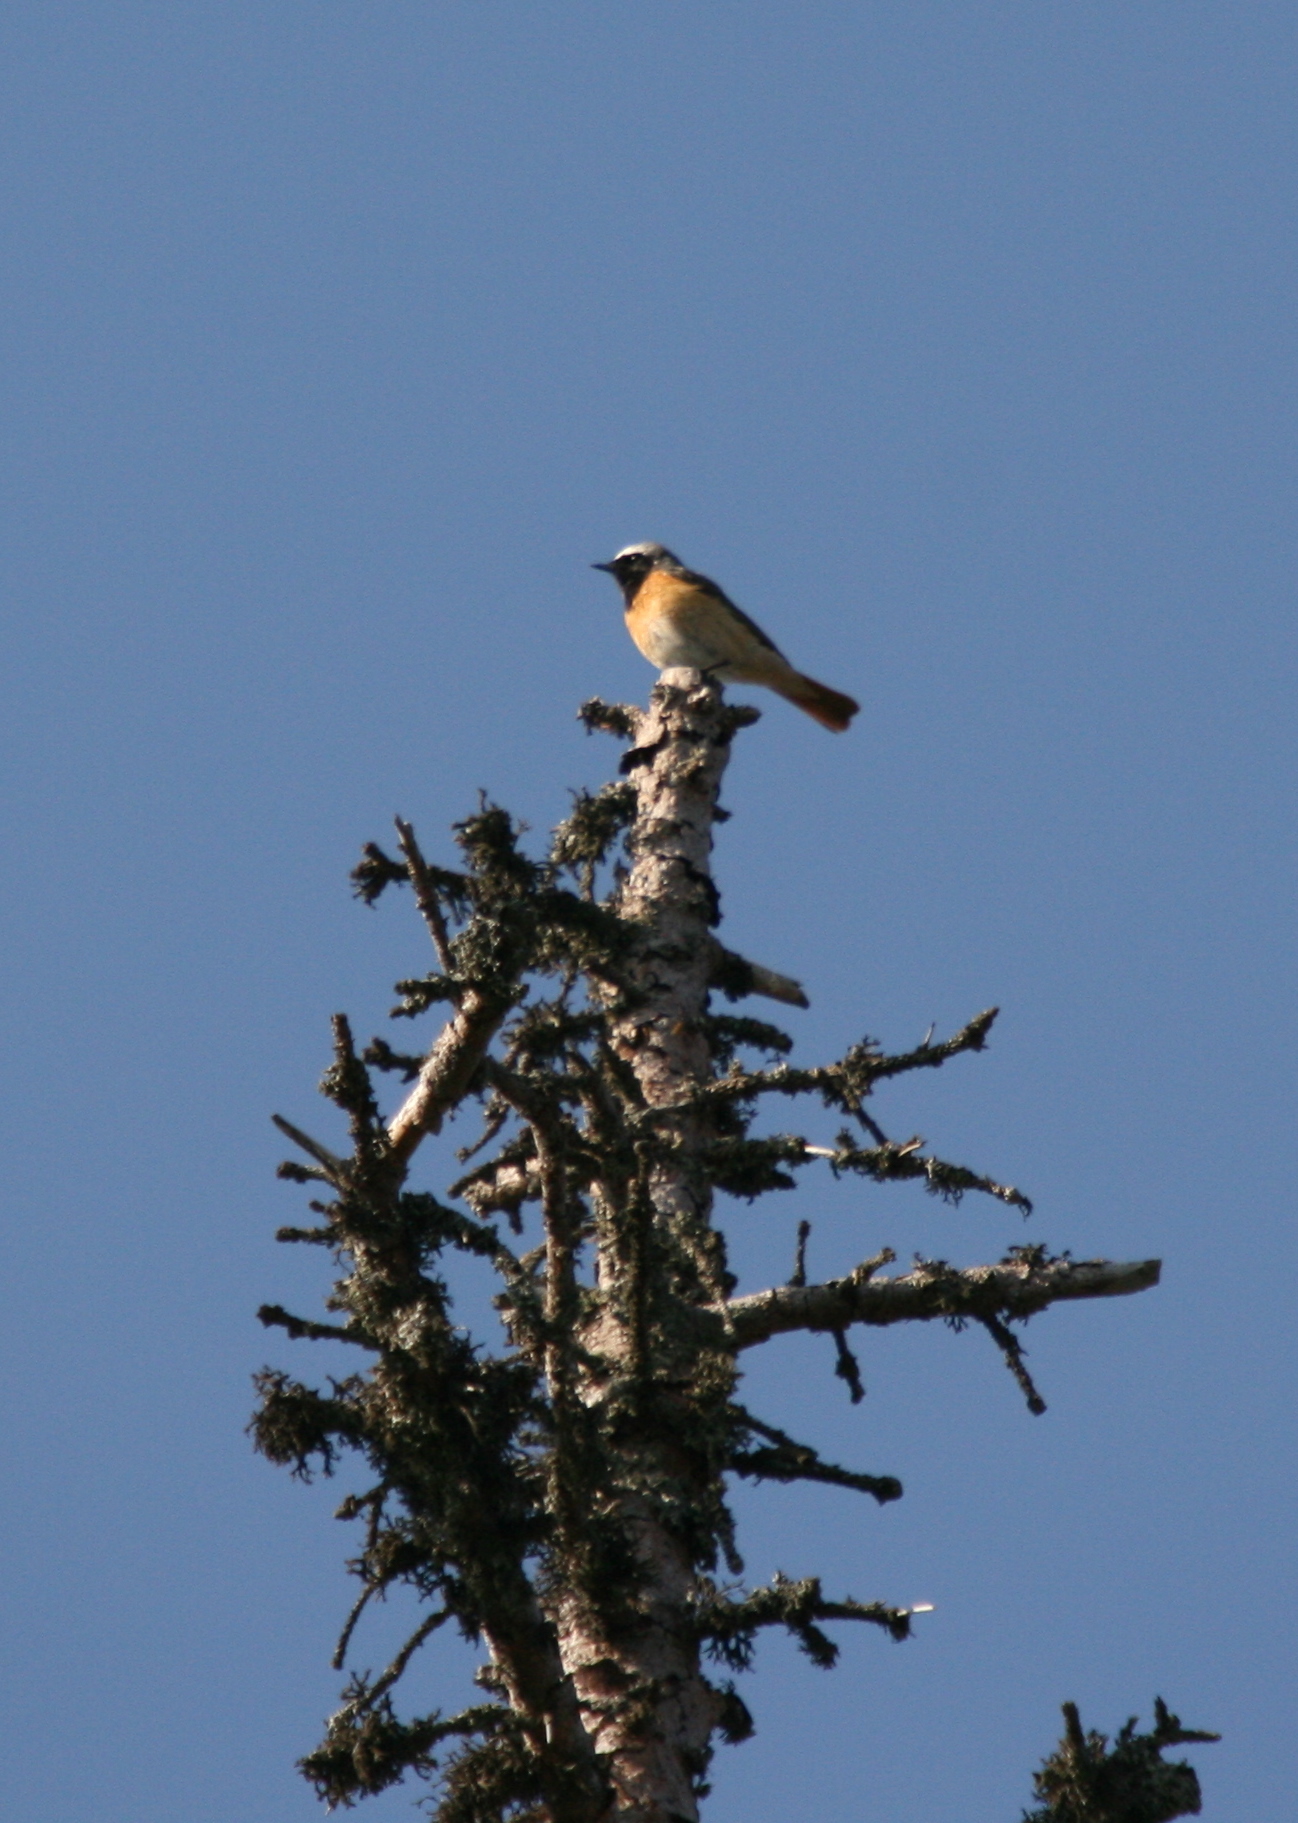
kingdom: Animalia
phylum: Chordata
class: Aves
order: Passeriformes
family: Muscicapidae
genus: Phoenicurus
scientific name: Phoenicurus phoenicurus
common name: Common redstart
